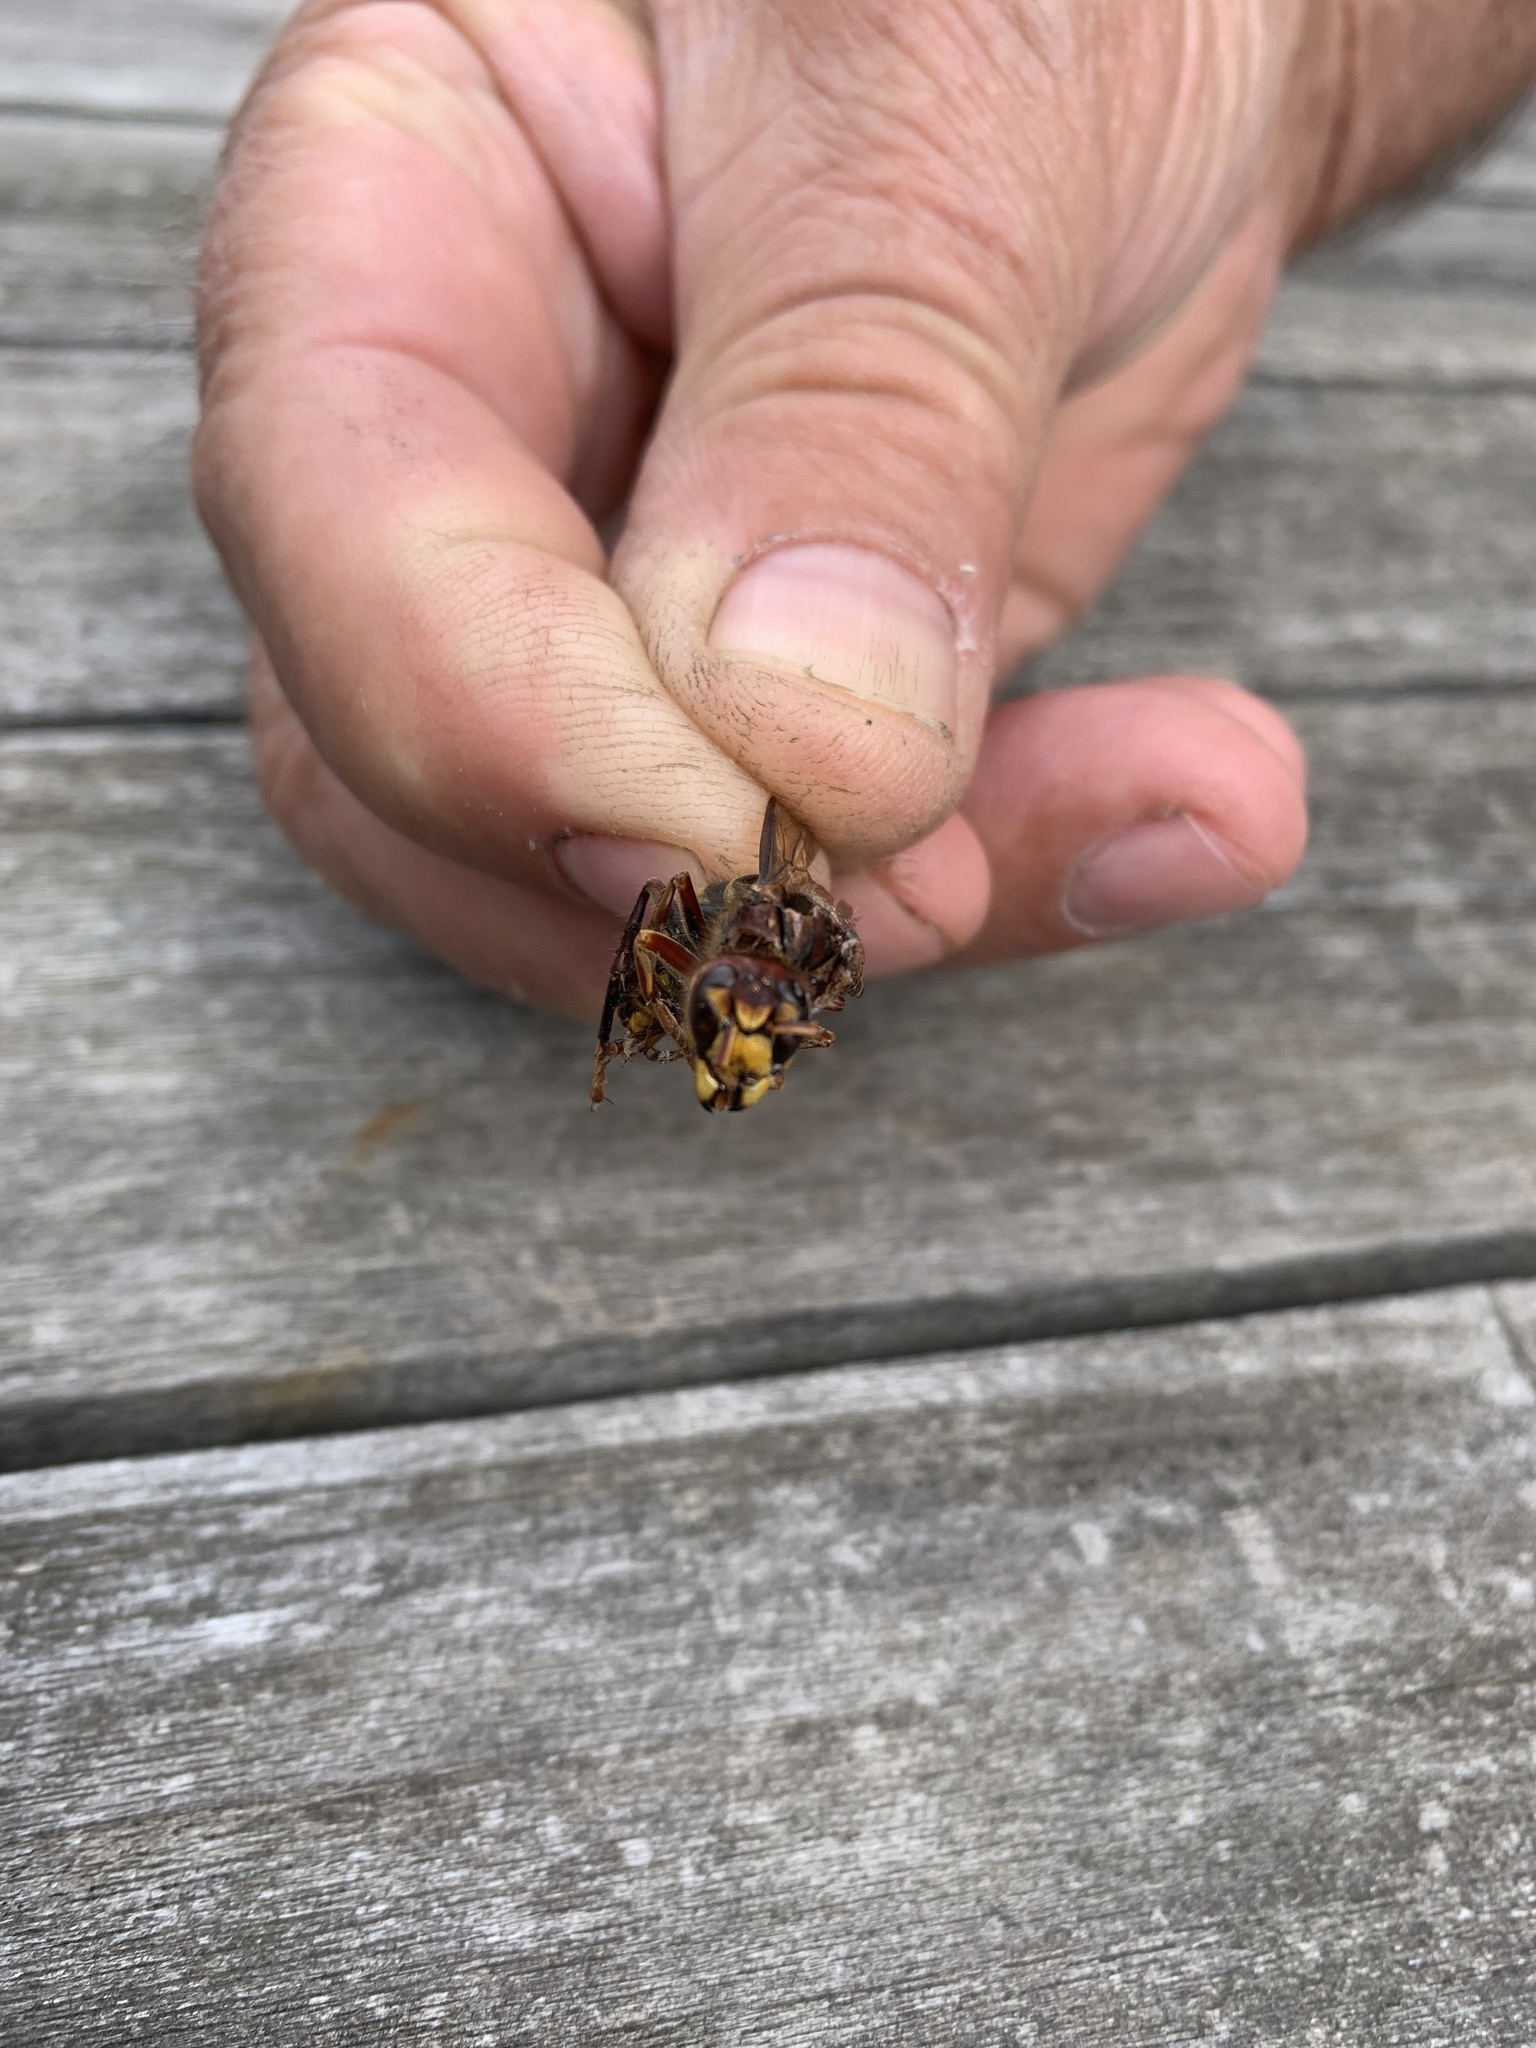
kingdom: Animalia
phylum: Arthropoda
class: Insecta
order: Hymenoptera
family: Vespidae
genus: Vespa
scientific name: Vespa crabro
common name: Hornet
